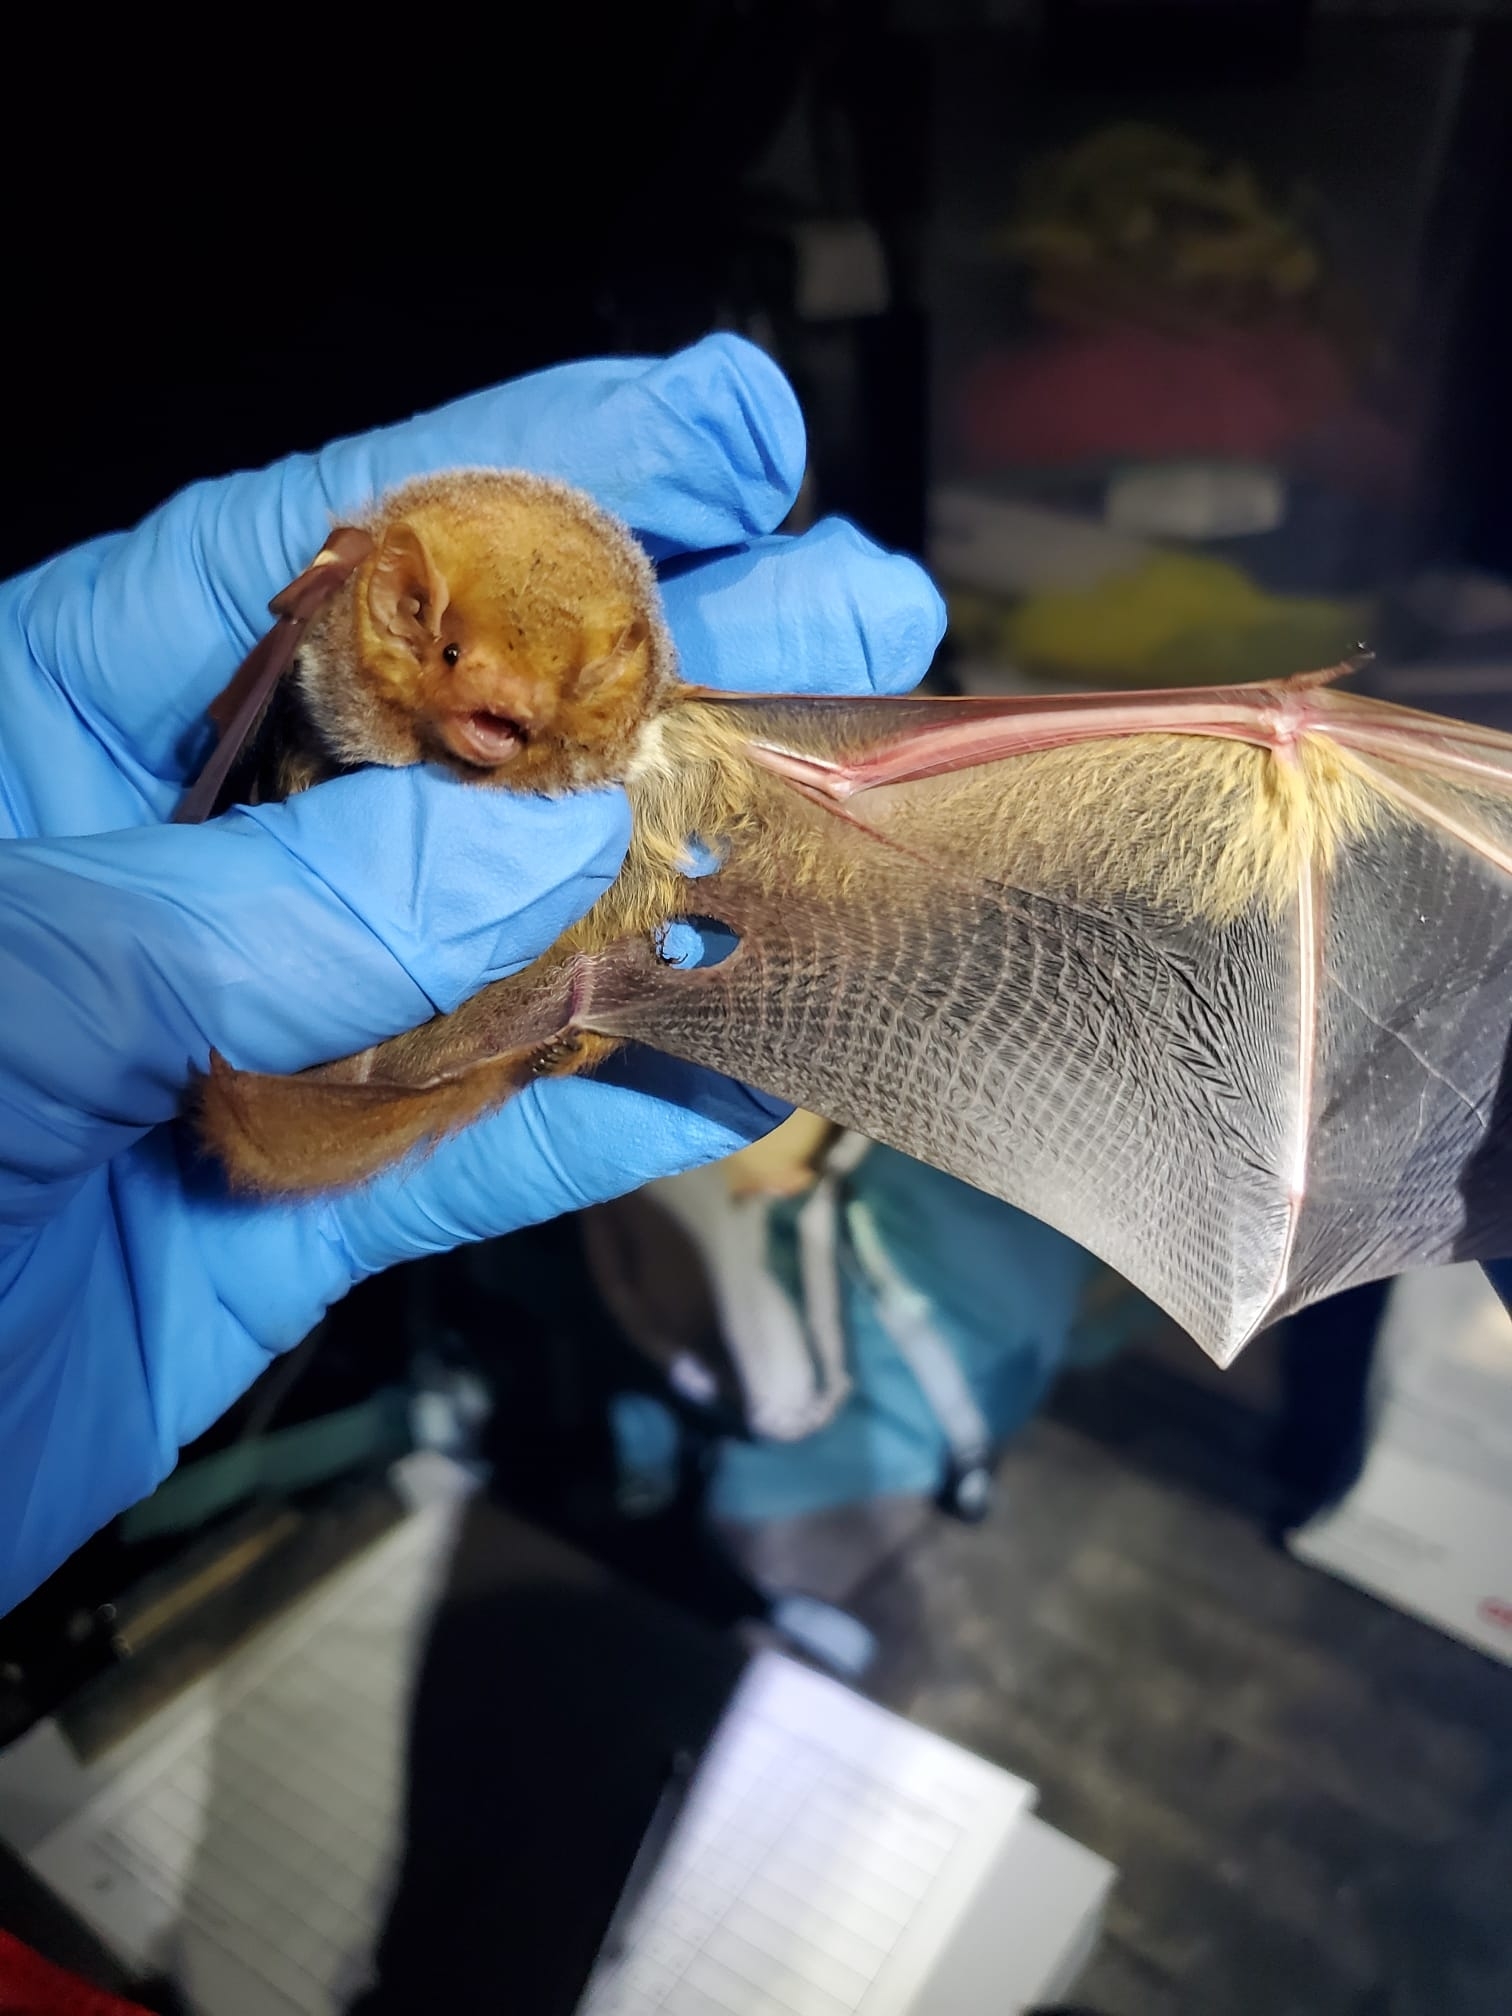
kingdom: Animalia
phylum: Chordata
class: Mammalia
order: Chiroptera
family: Vespertilionidae
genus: Lasiurus
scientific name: Lasiurus borealis
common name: Eastern red bat
